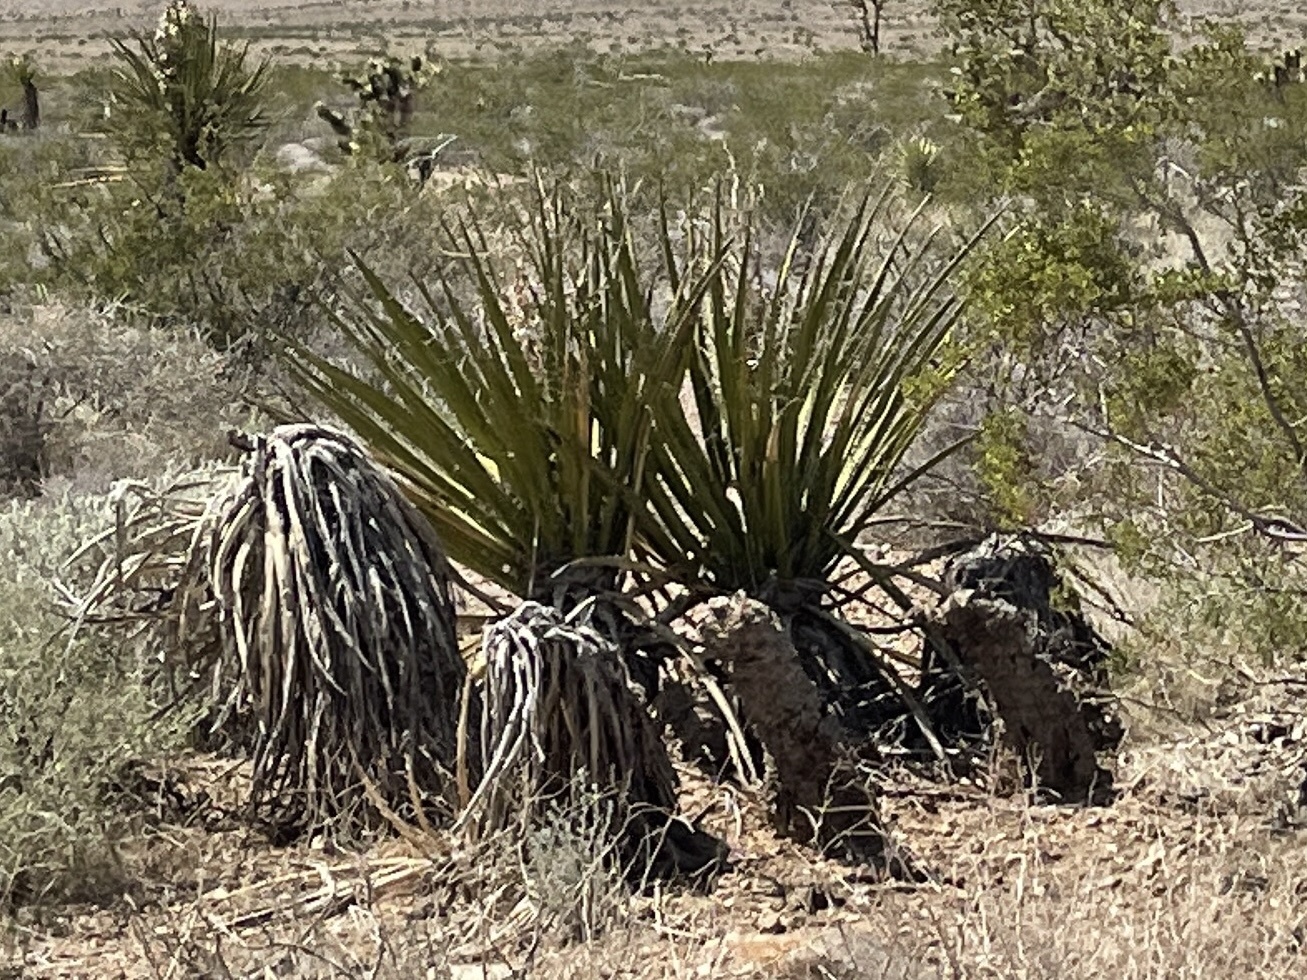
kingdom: Plantae
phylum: Tracheophyta
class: Liliopsida
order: Asparagales
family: Asparagaceae
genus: Yucca
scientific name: Yucca schidigera
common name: Mojave yucca
